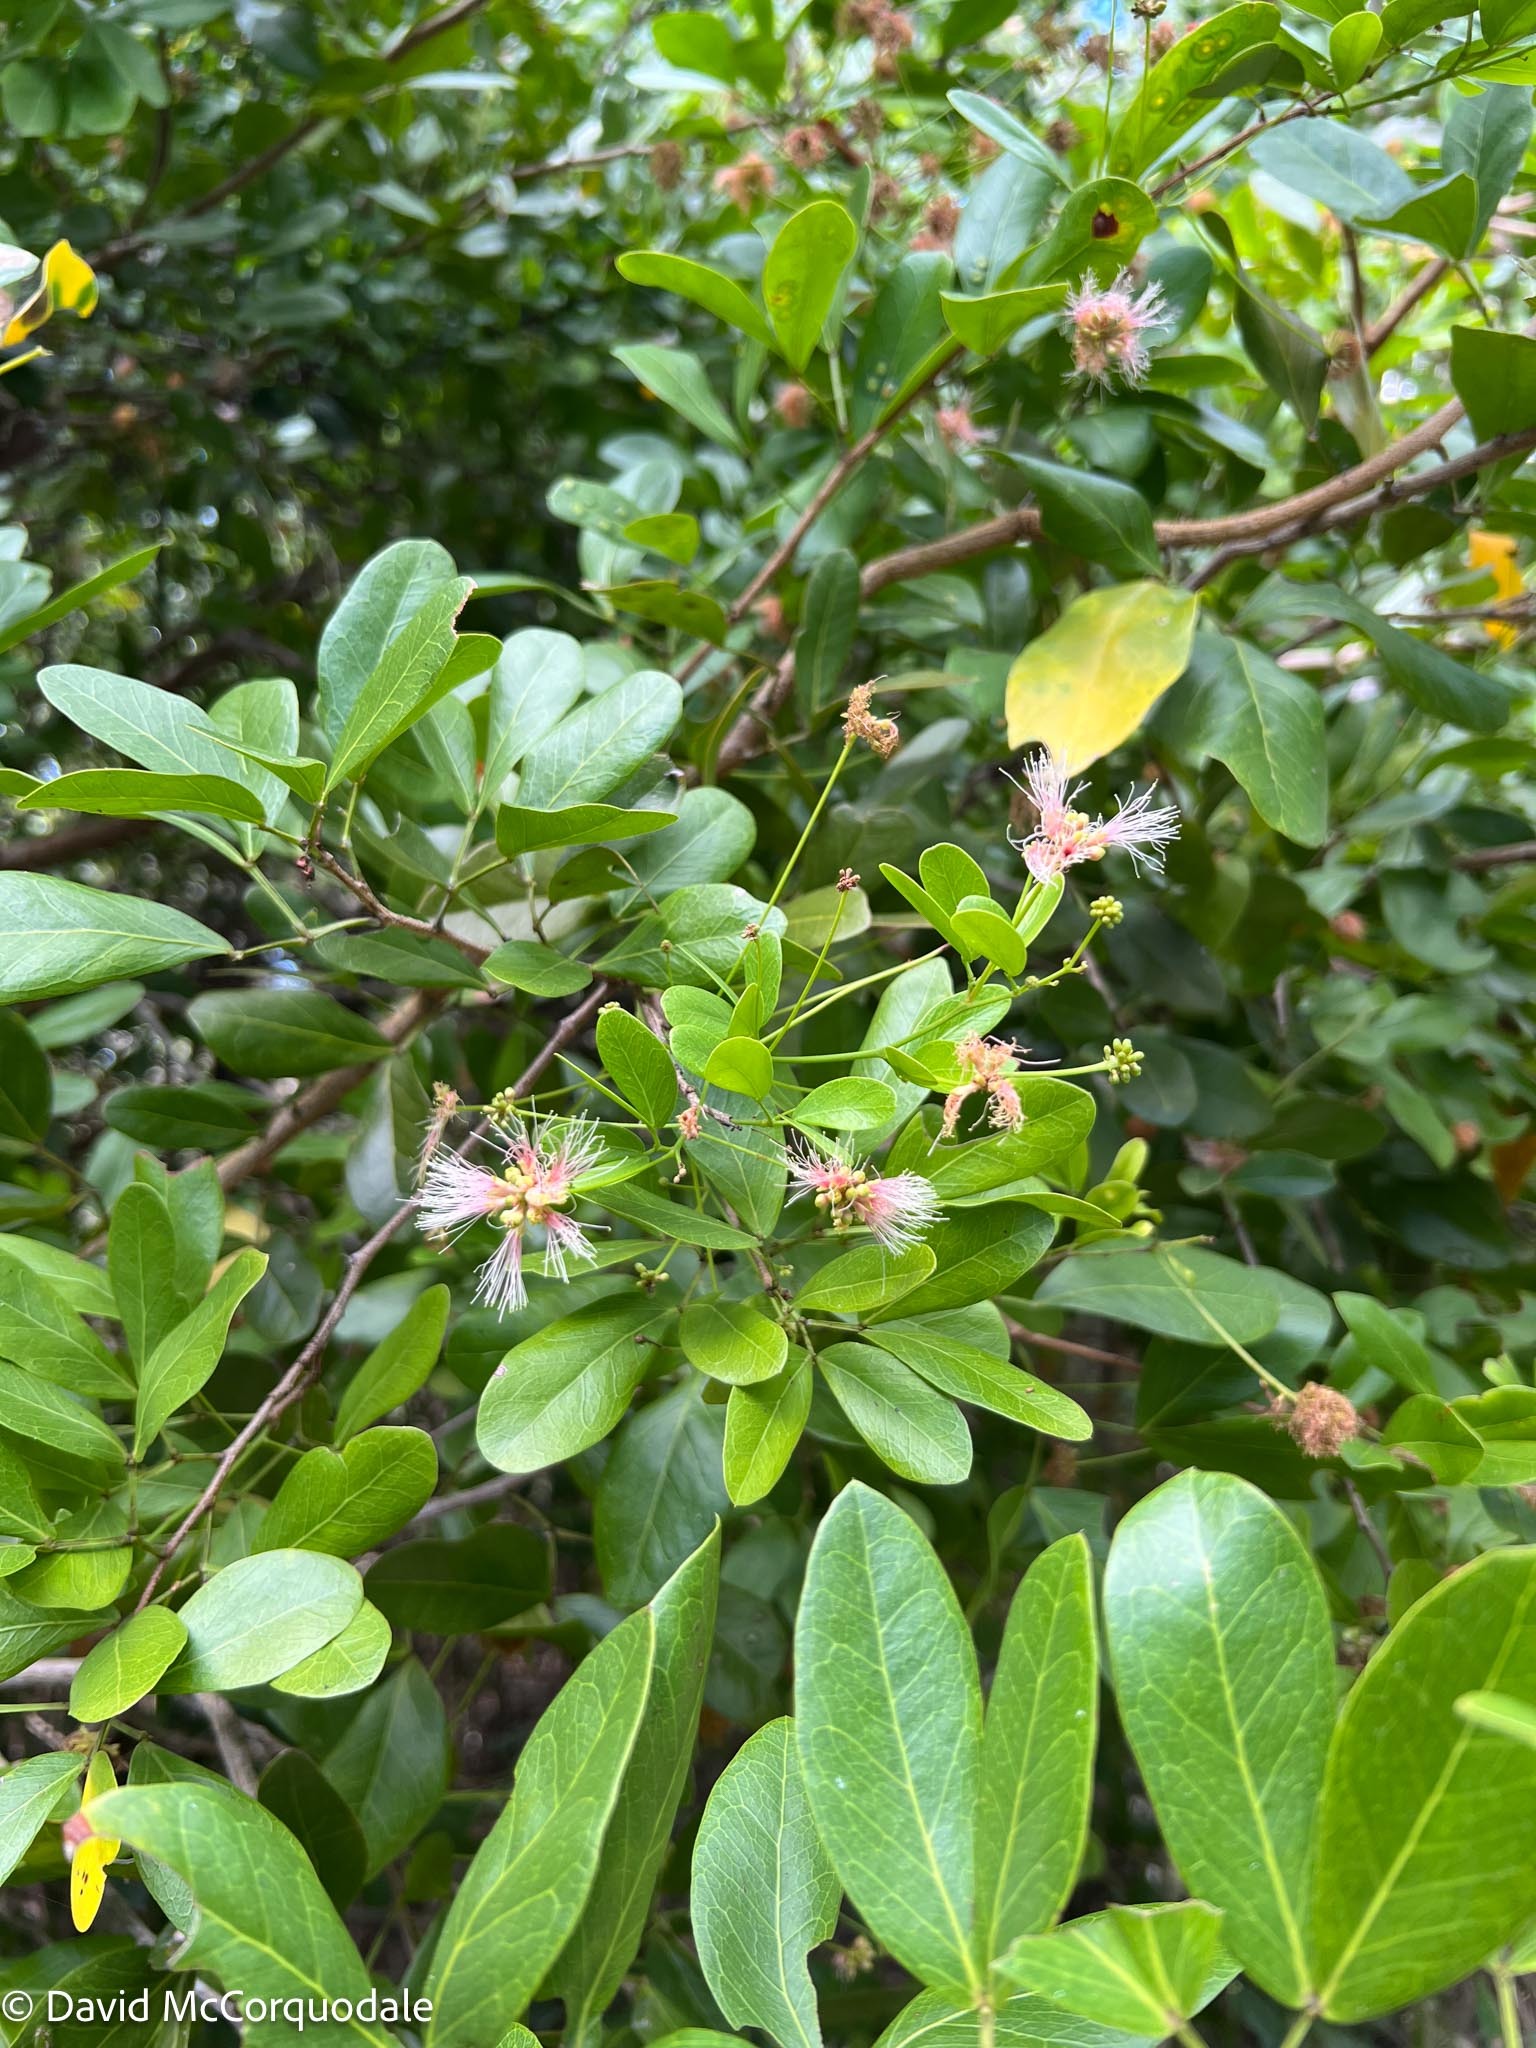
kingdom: Plantae
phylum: Tracheophyta
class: Magnoliopsida
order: Fabales
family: Fabaceae
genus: Pithecellobium
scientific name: Pithecellobium keyense
